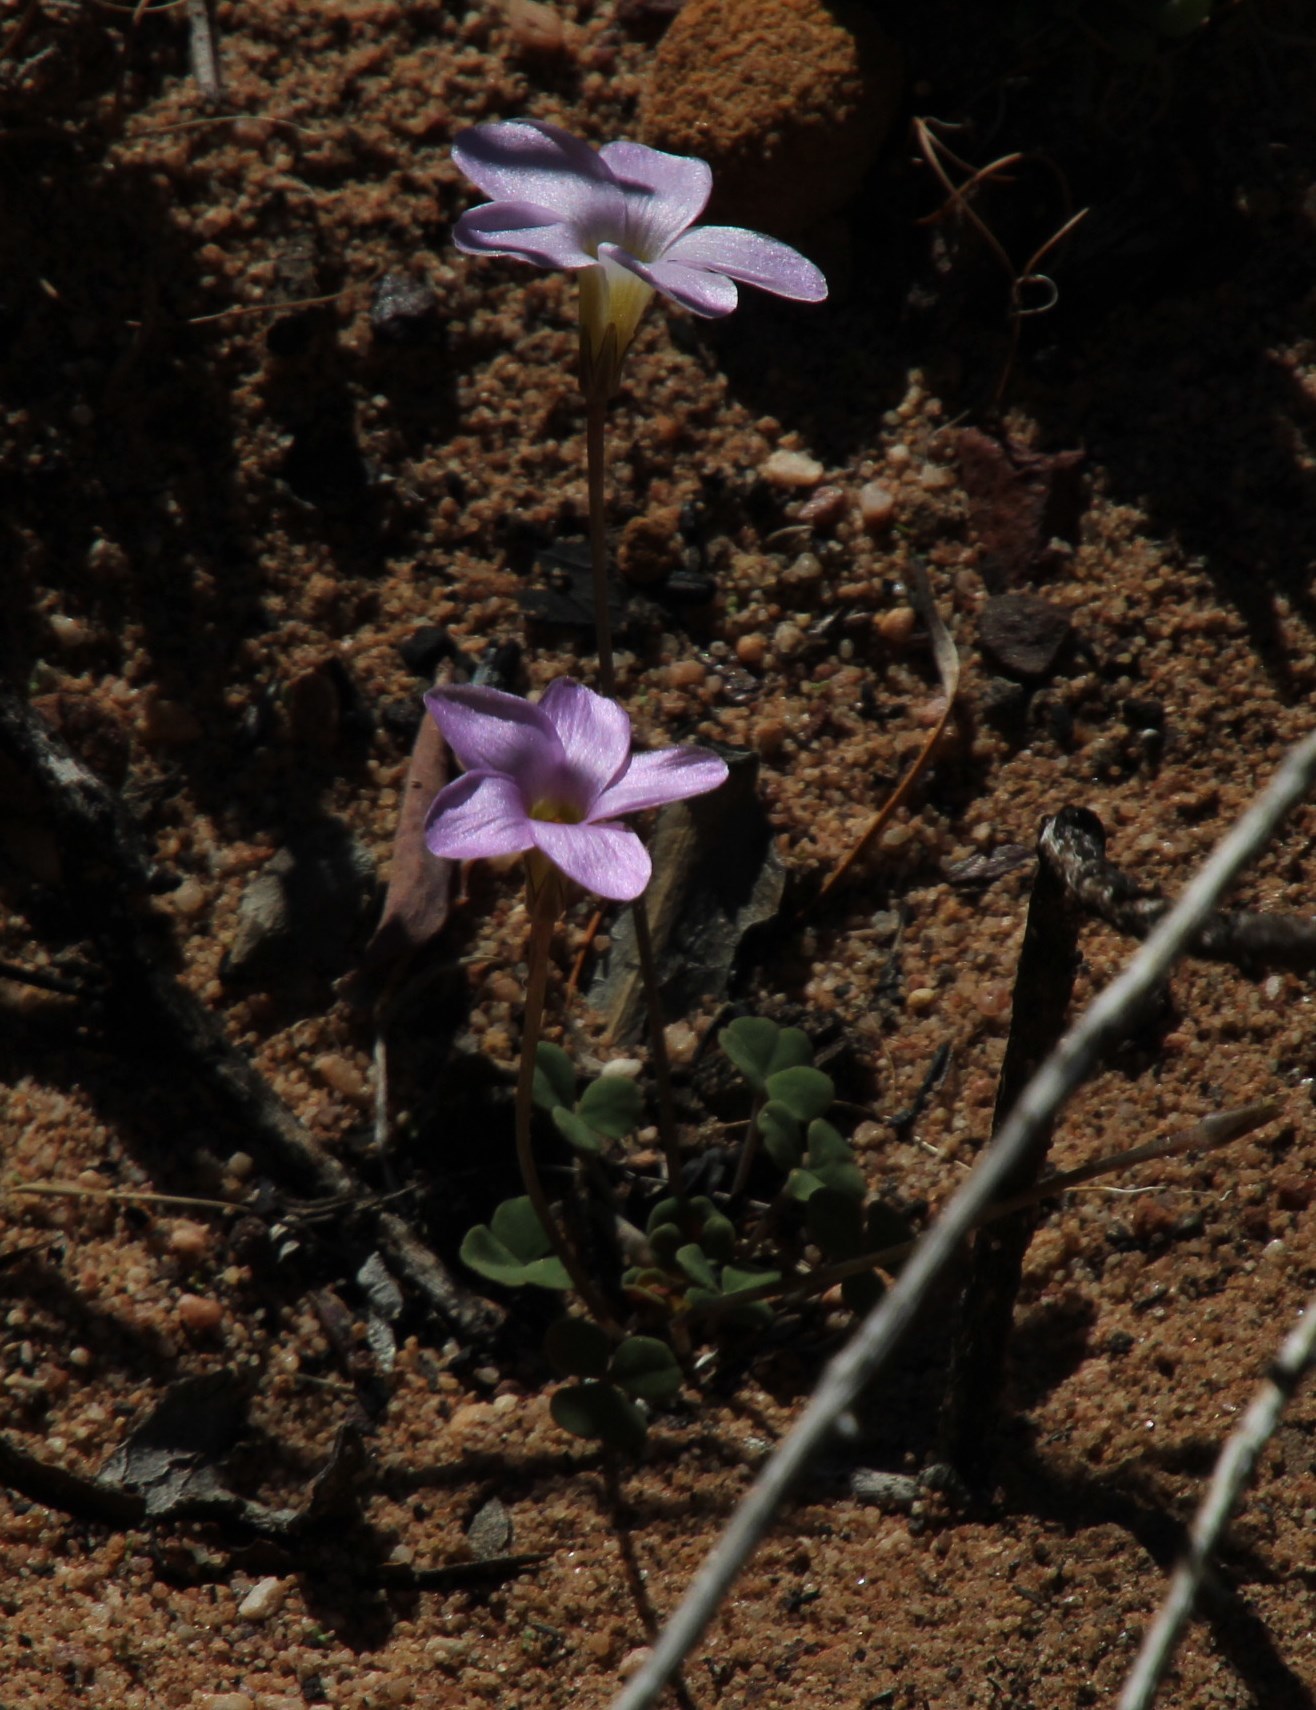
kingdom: Plantae
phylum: Tracheophyta
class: Magnoliopsida
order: Oxalidales
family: Oxalidaceae
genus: Oxalis
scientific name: Oxalis pocockiae
